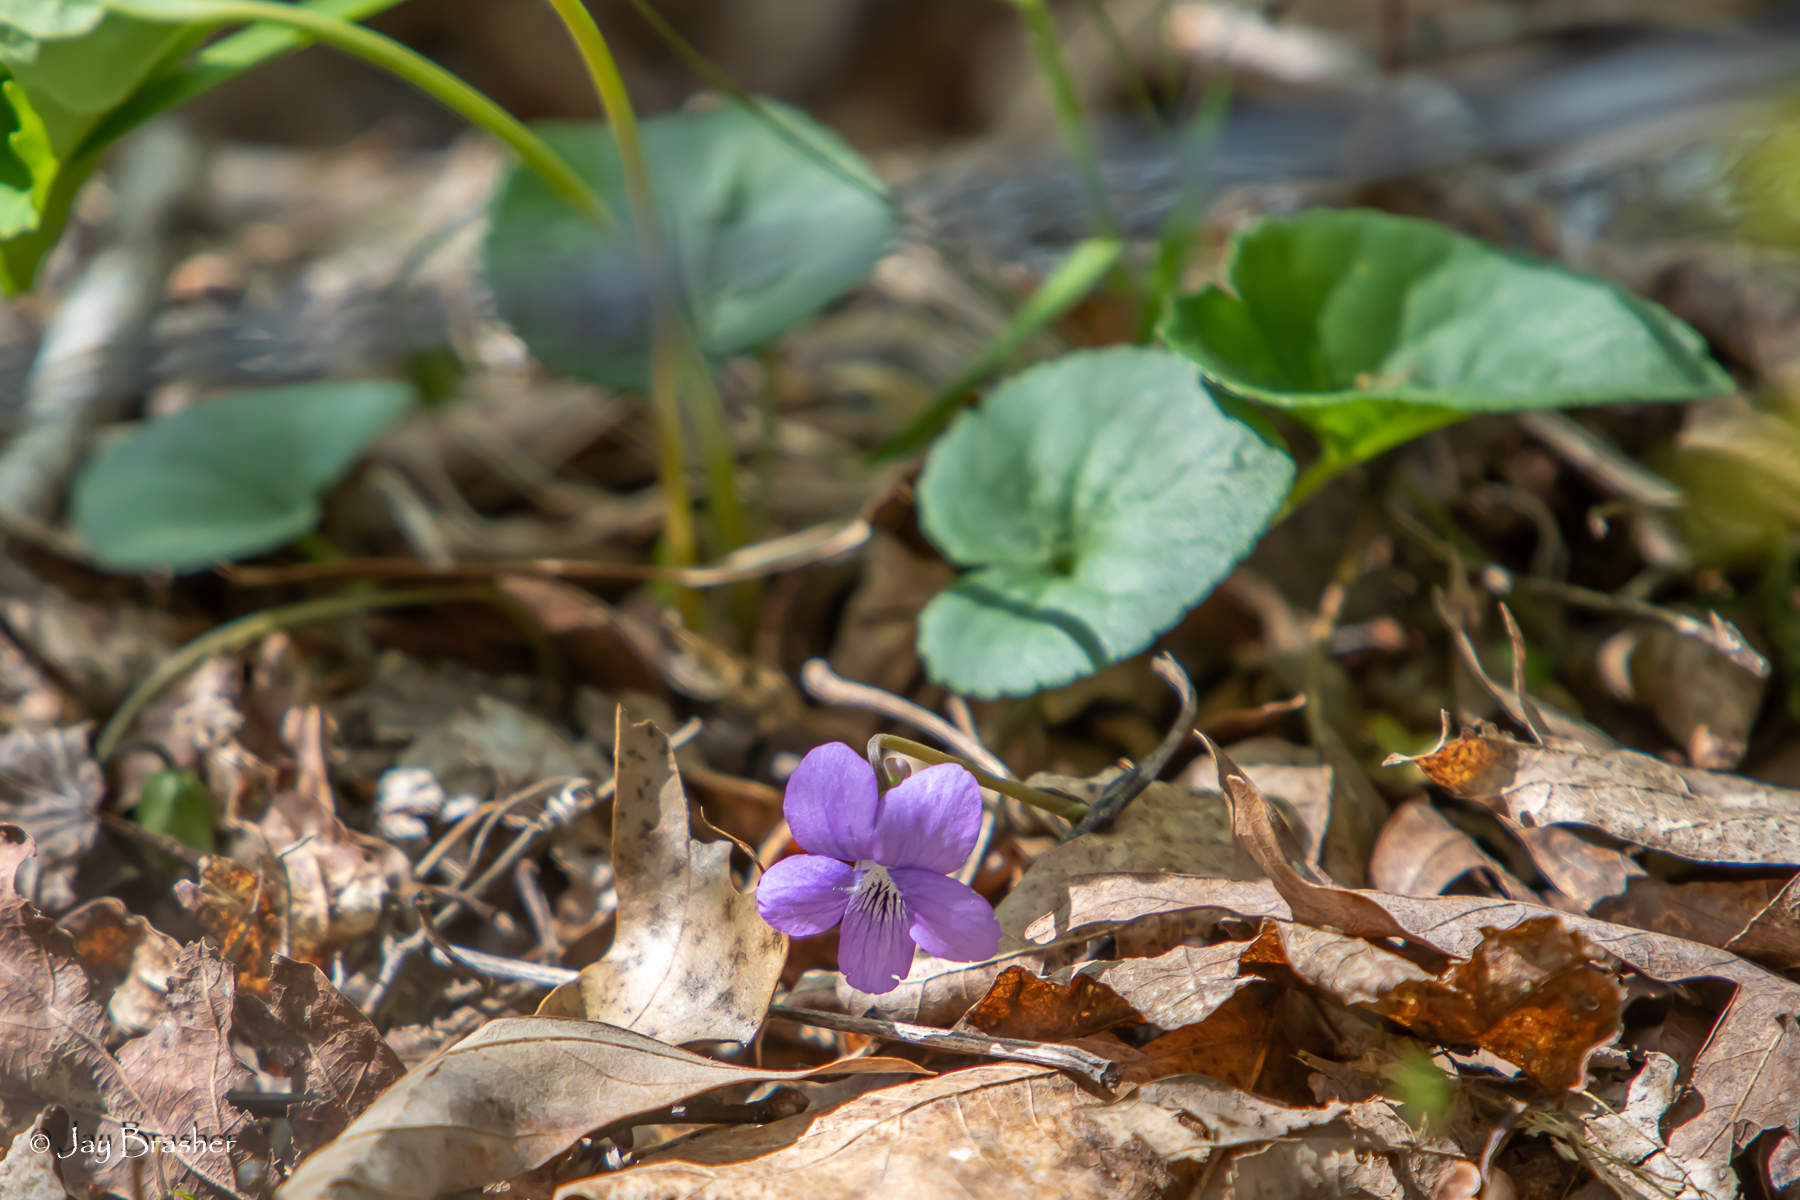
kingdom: Plantae
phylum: Tracheophyta
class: Magnoliopsida
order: Malpighiales
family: Violaceae
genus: Viola
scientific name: Viola sororia
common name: Dooryard violet
